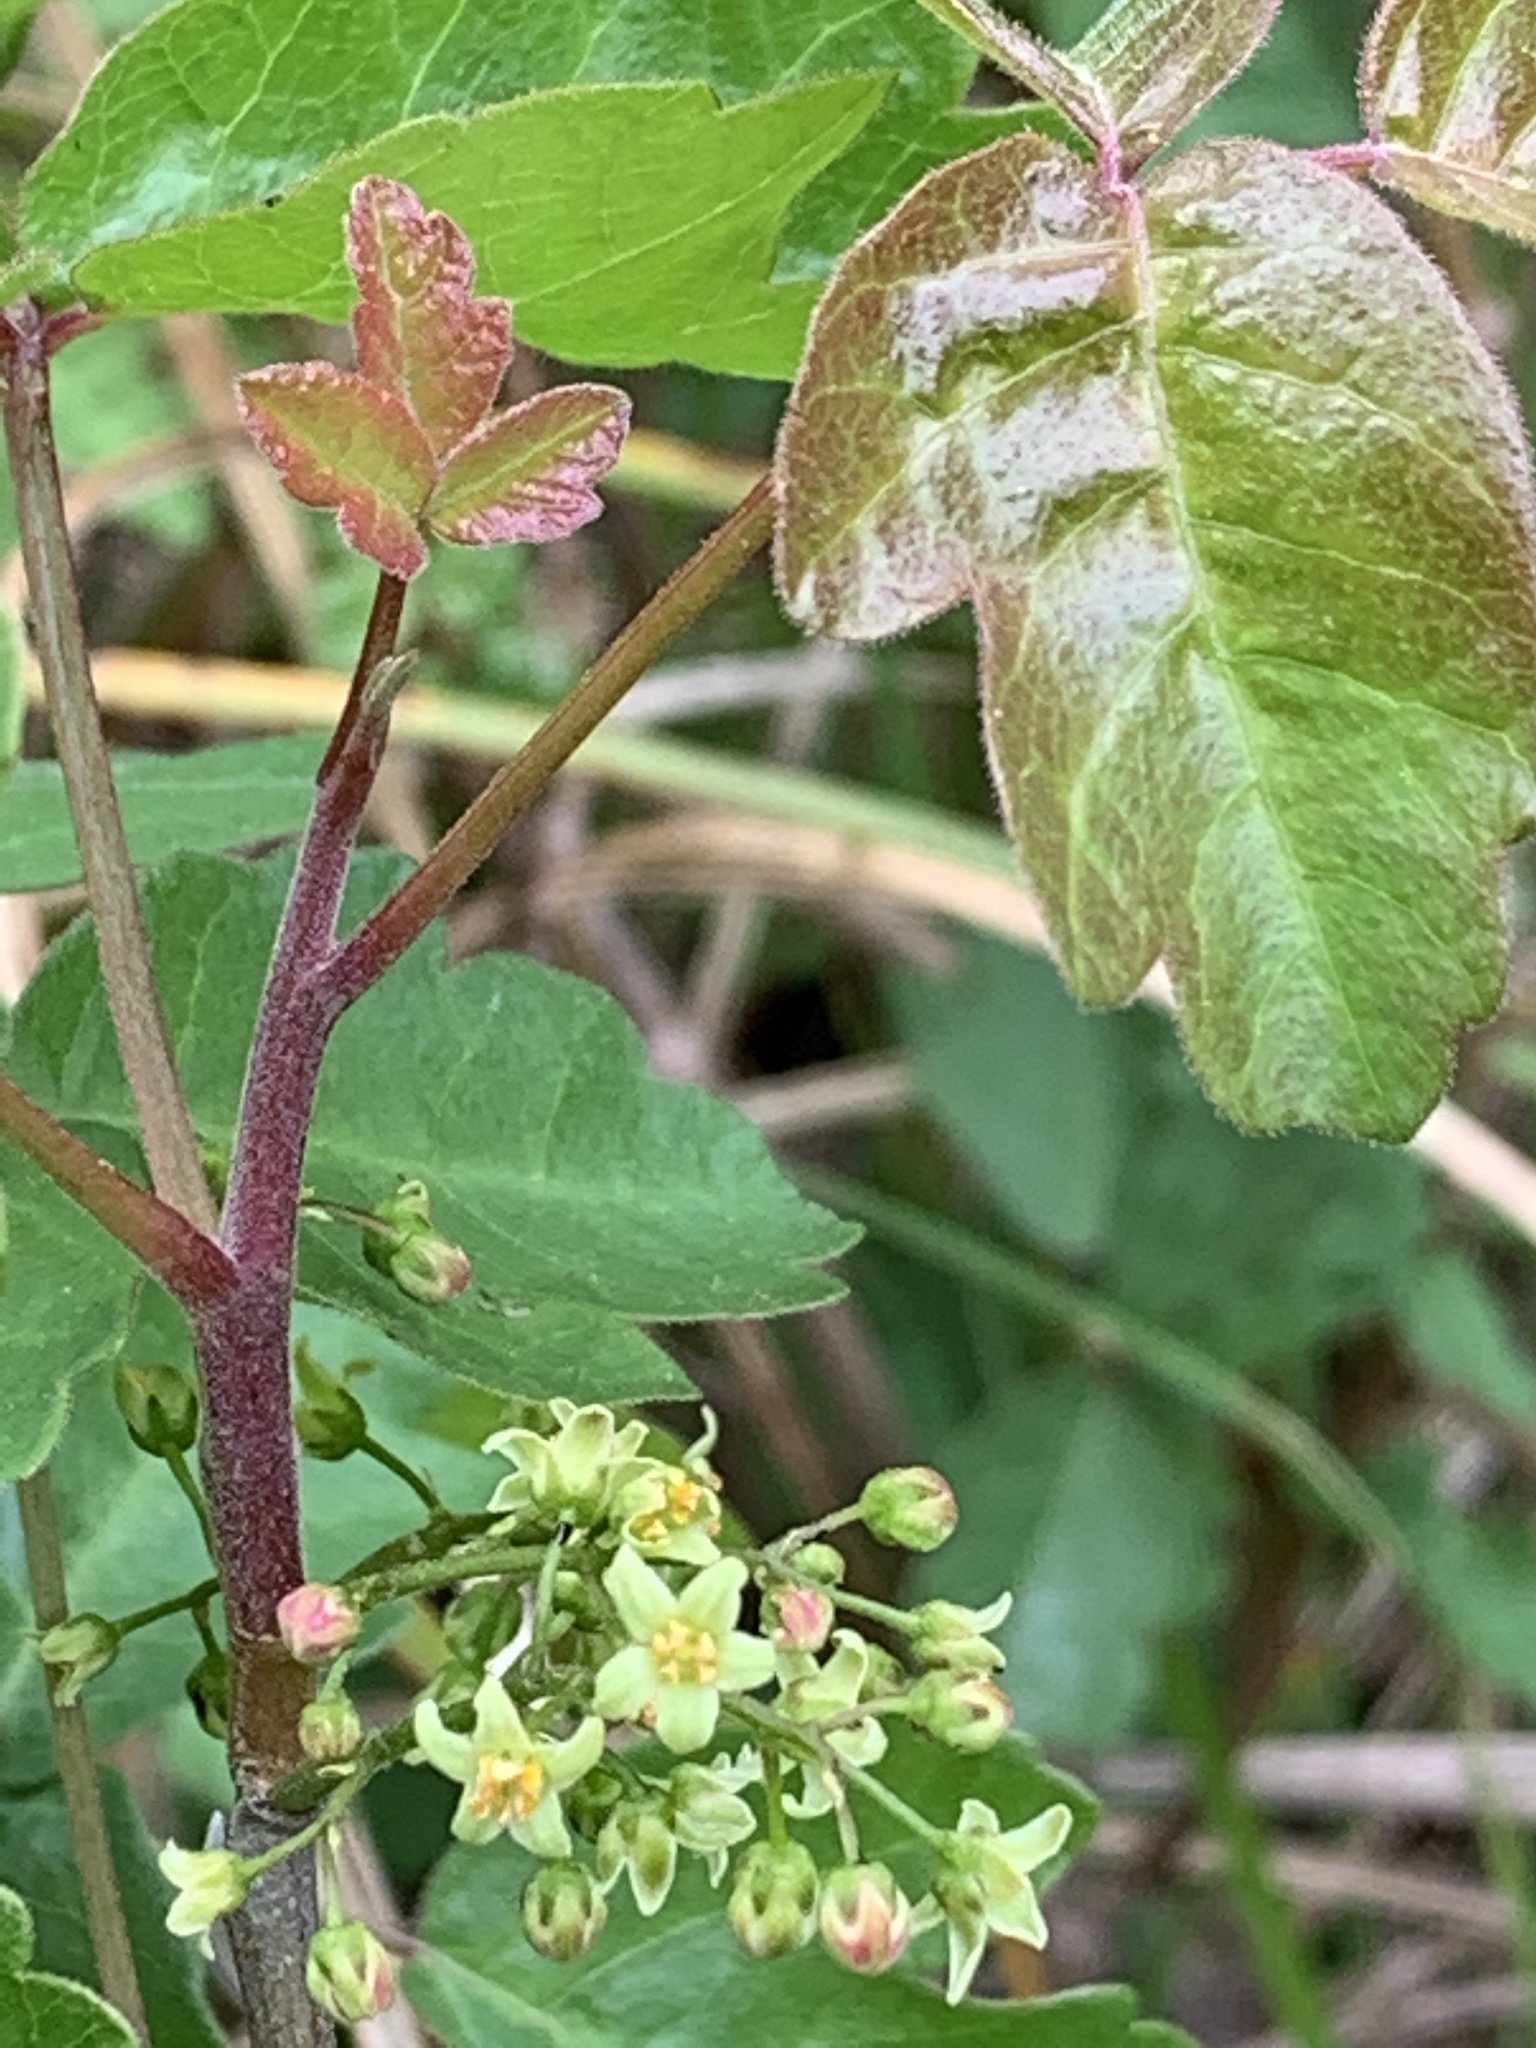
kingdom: Plantae
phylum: Tracheophyta
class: Magnoliopsida
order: Sapindales
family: Anacardiaceae
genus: Toxicodendron
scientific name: Toxicodendron diversilobum
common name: Pacific poison-oak
